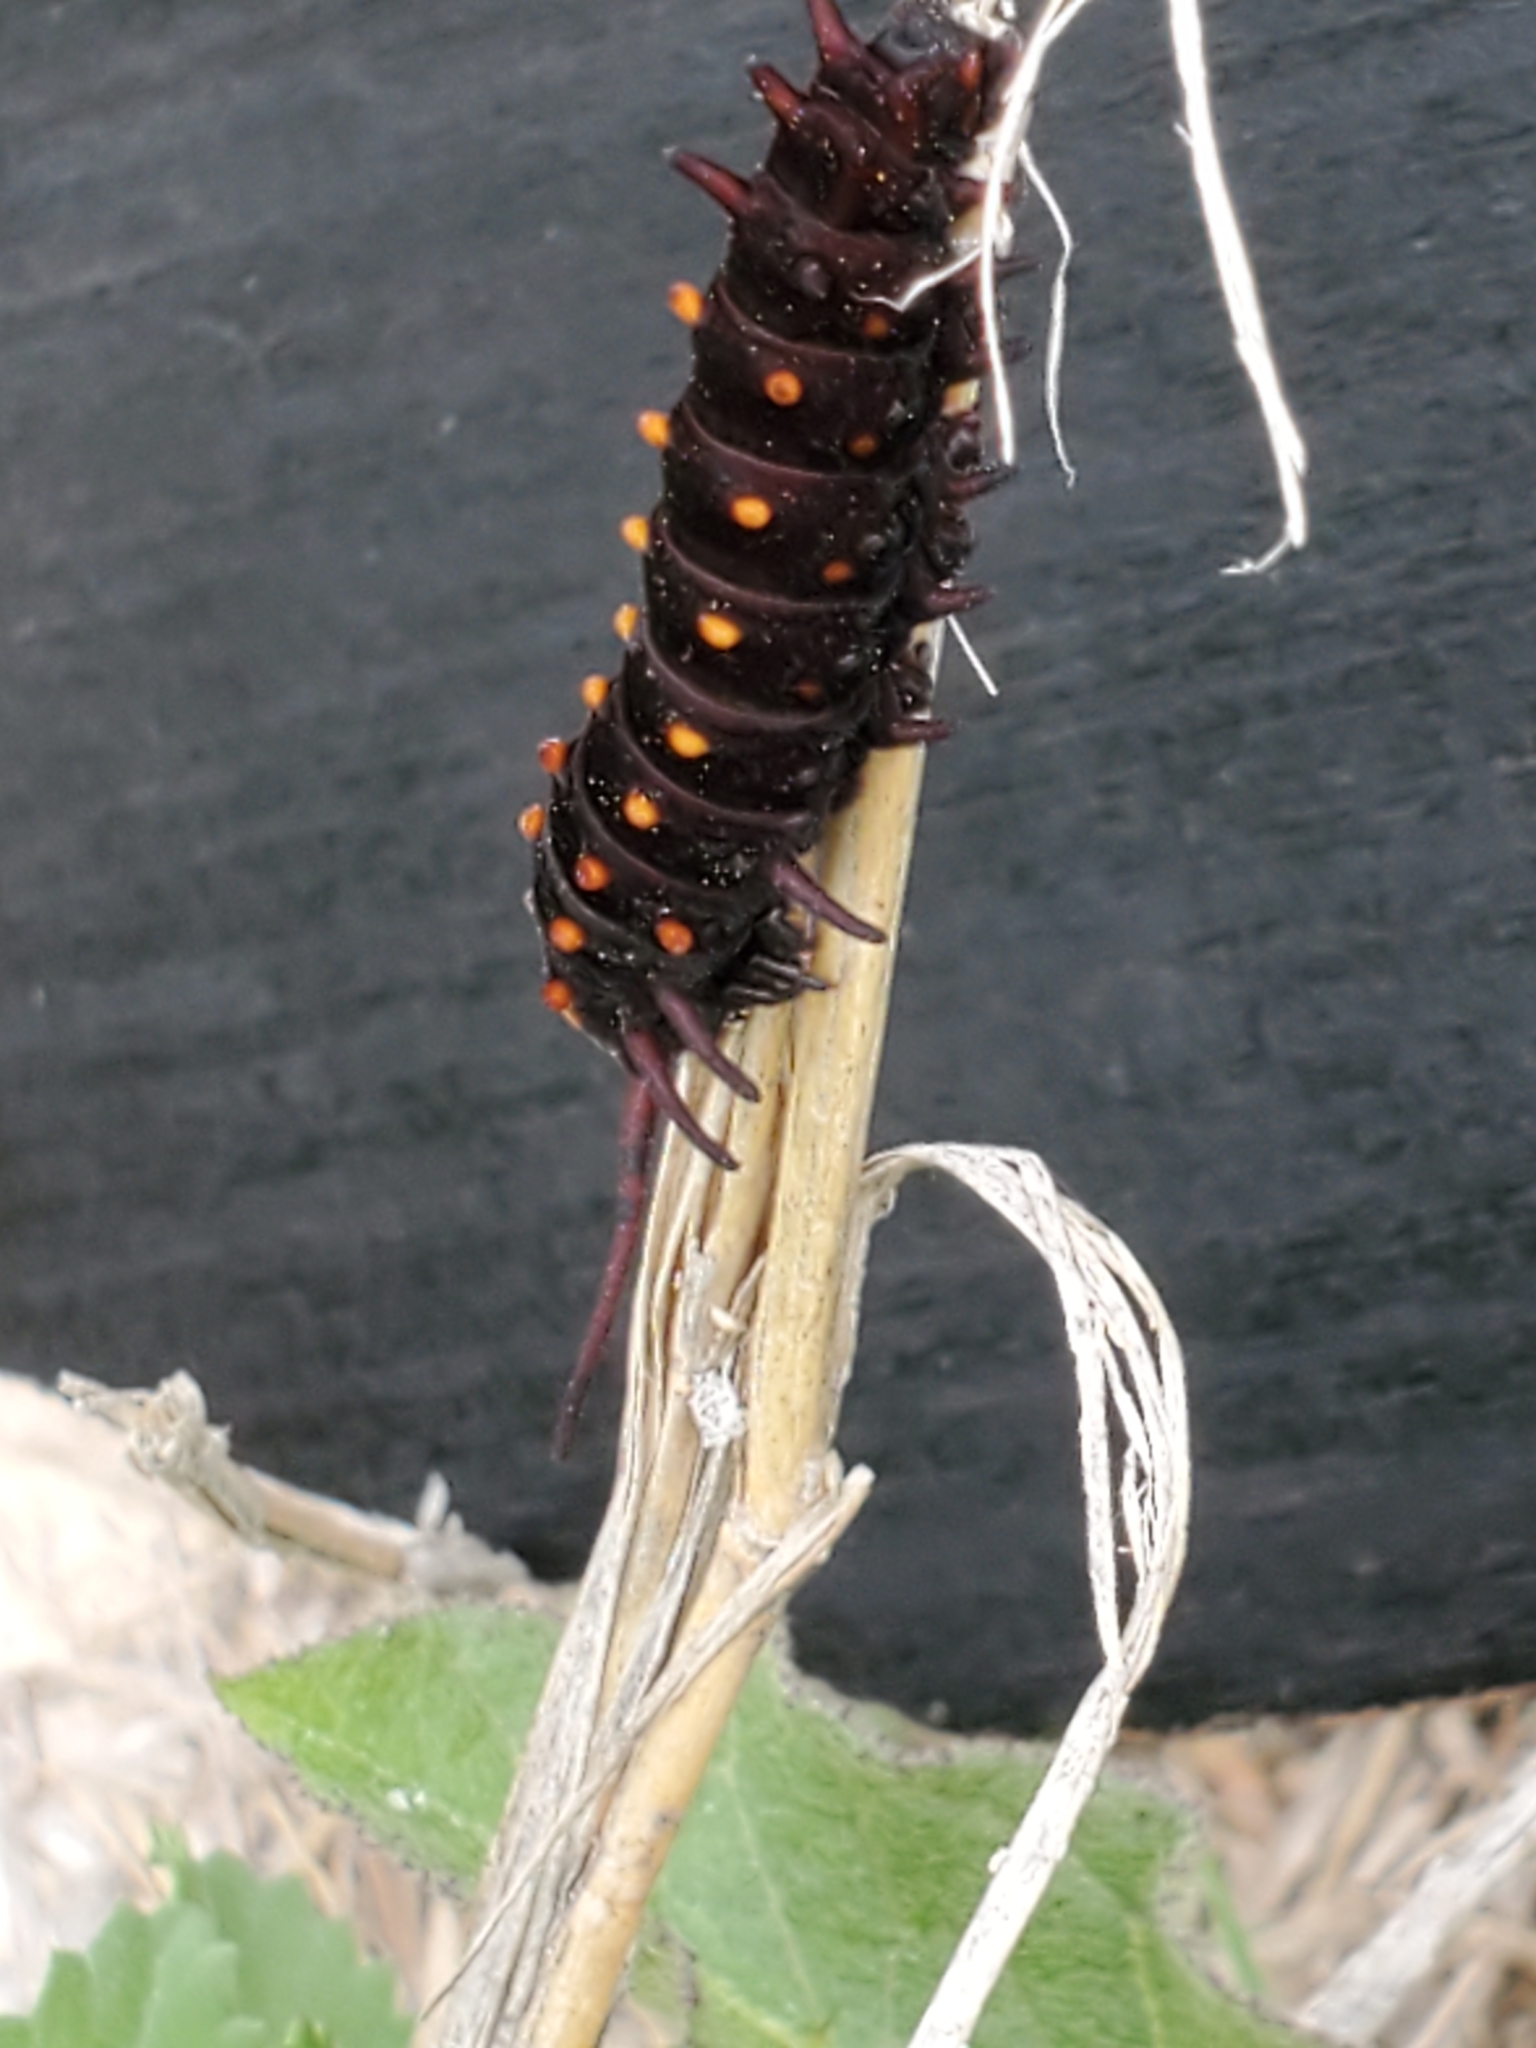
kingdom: Animalia
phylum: Arthropoda
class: Insecta
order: Lepidoptera
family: Papilionidae
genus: Battus
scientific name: Battus philenor
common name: Pipevine swallowtail
